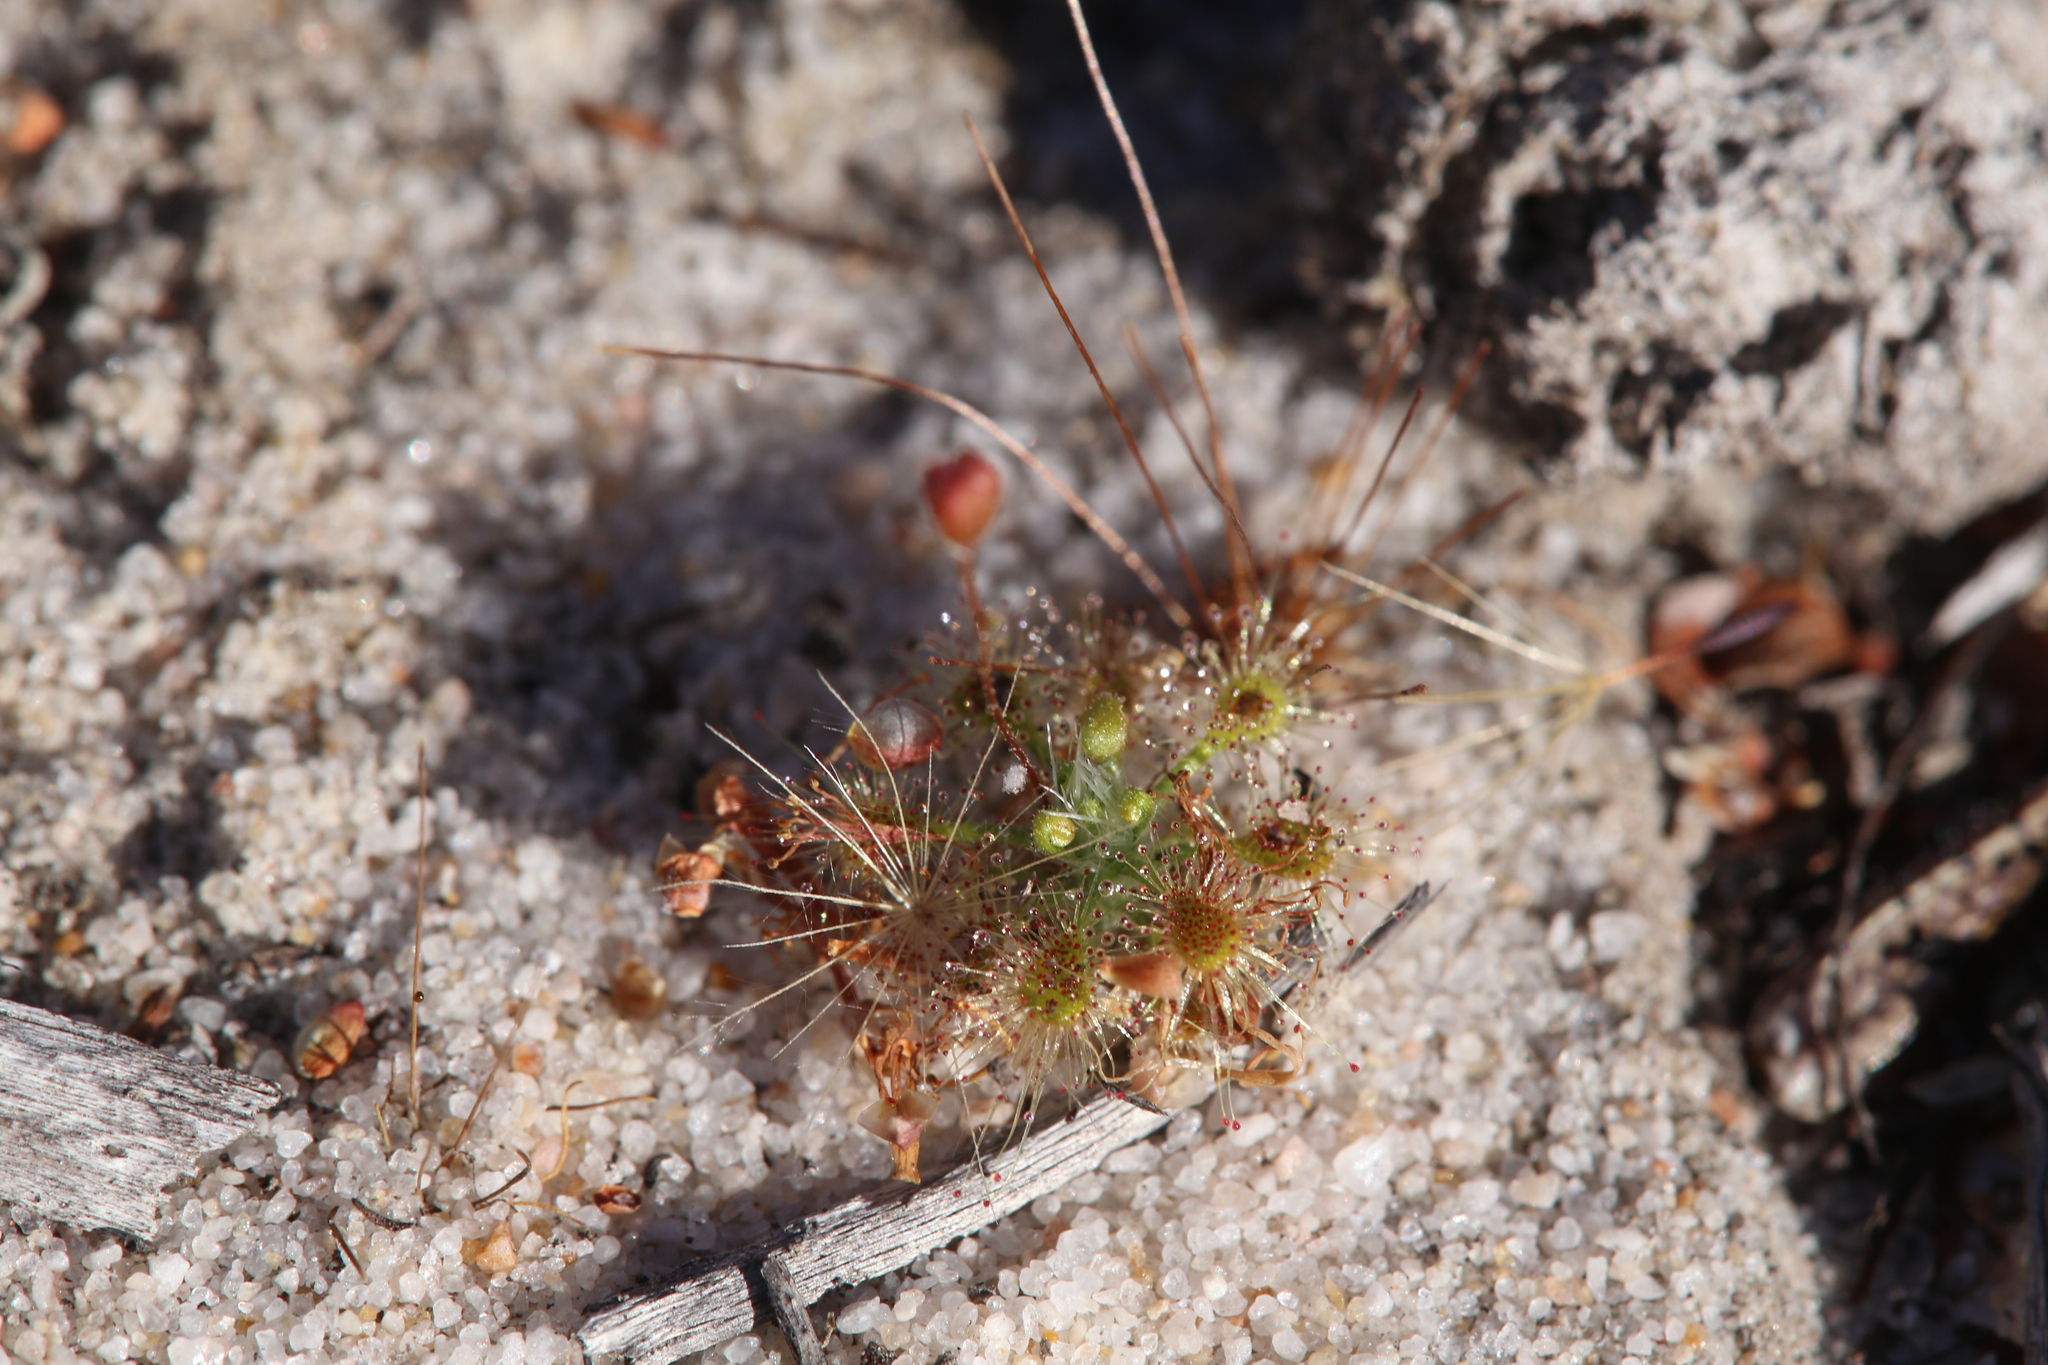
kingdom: Plantae
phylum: Tracheophyta
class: Magnoliopsida
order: Caryophyllales
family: Droseraceae
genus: Drosera
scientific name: Drosera nitidula
